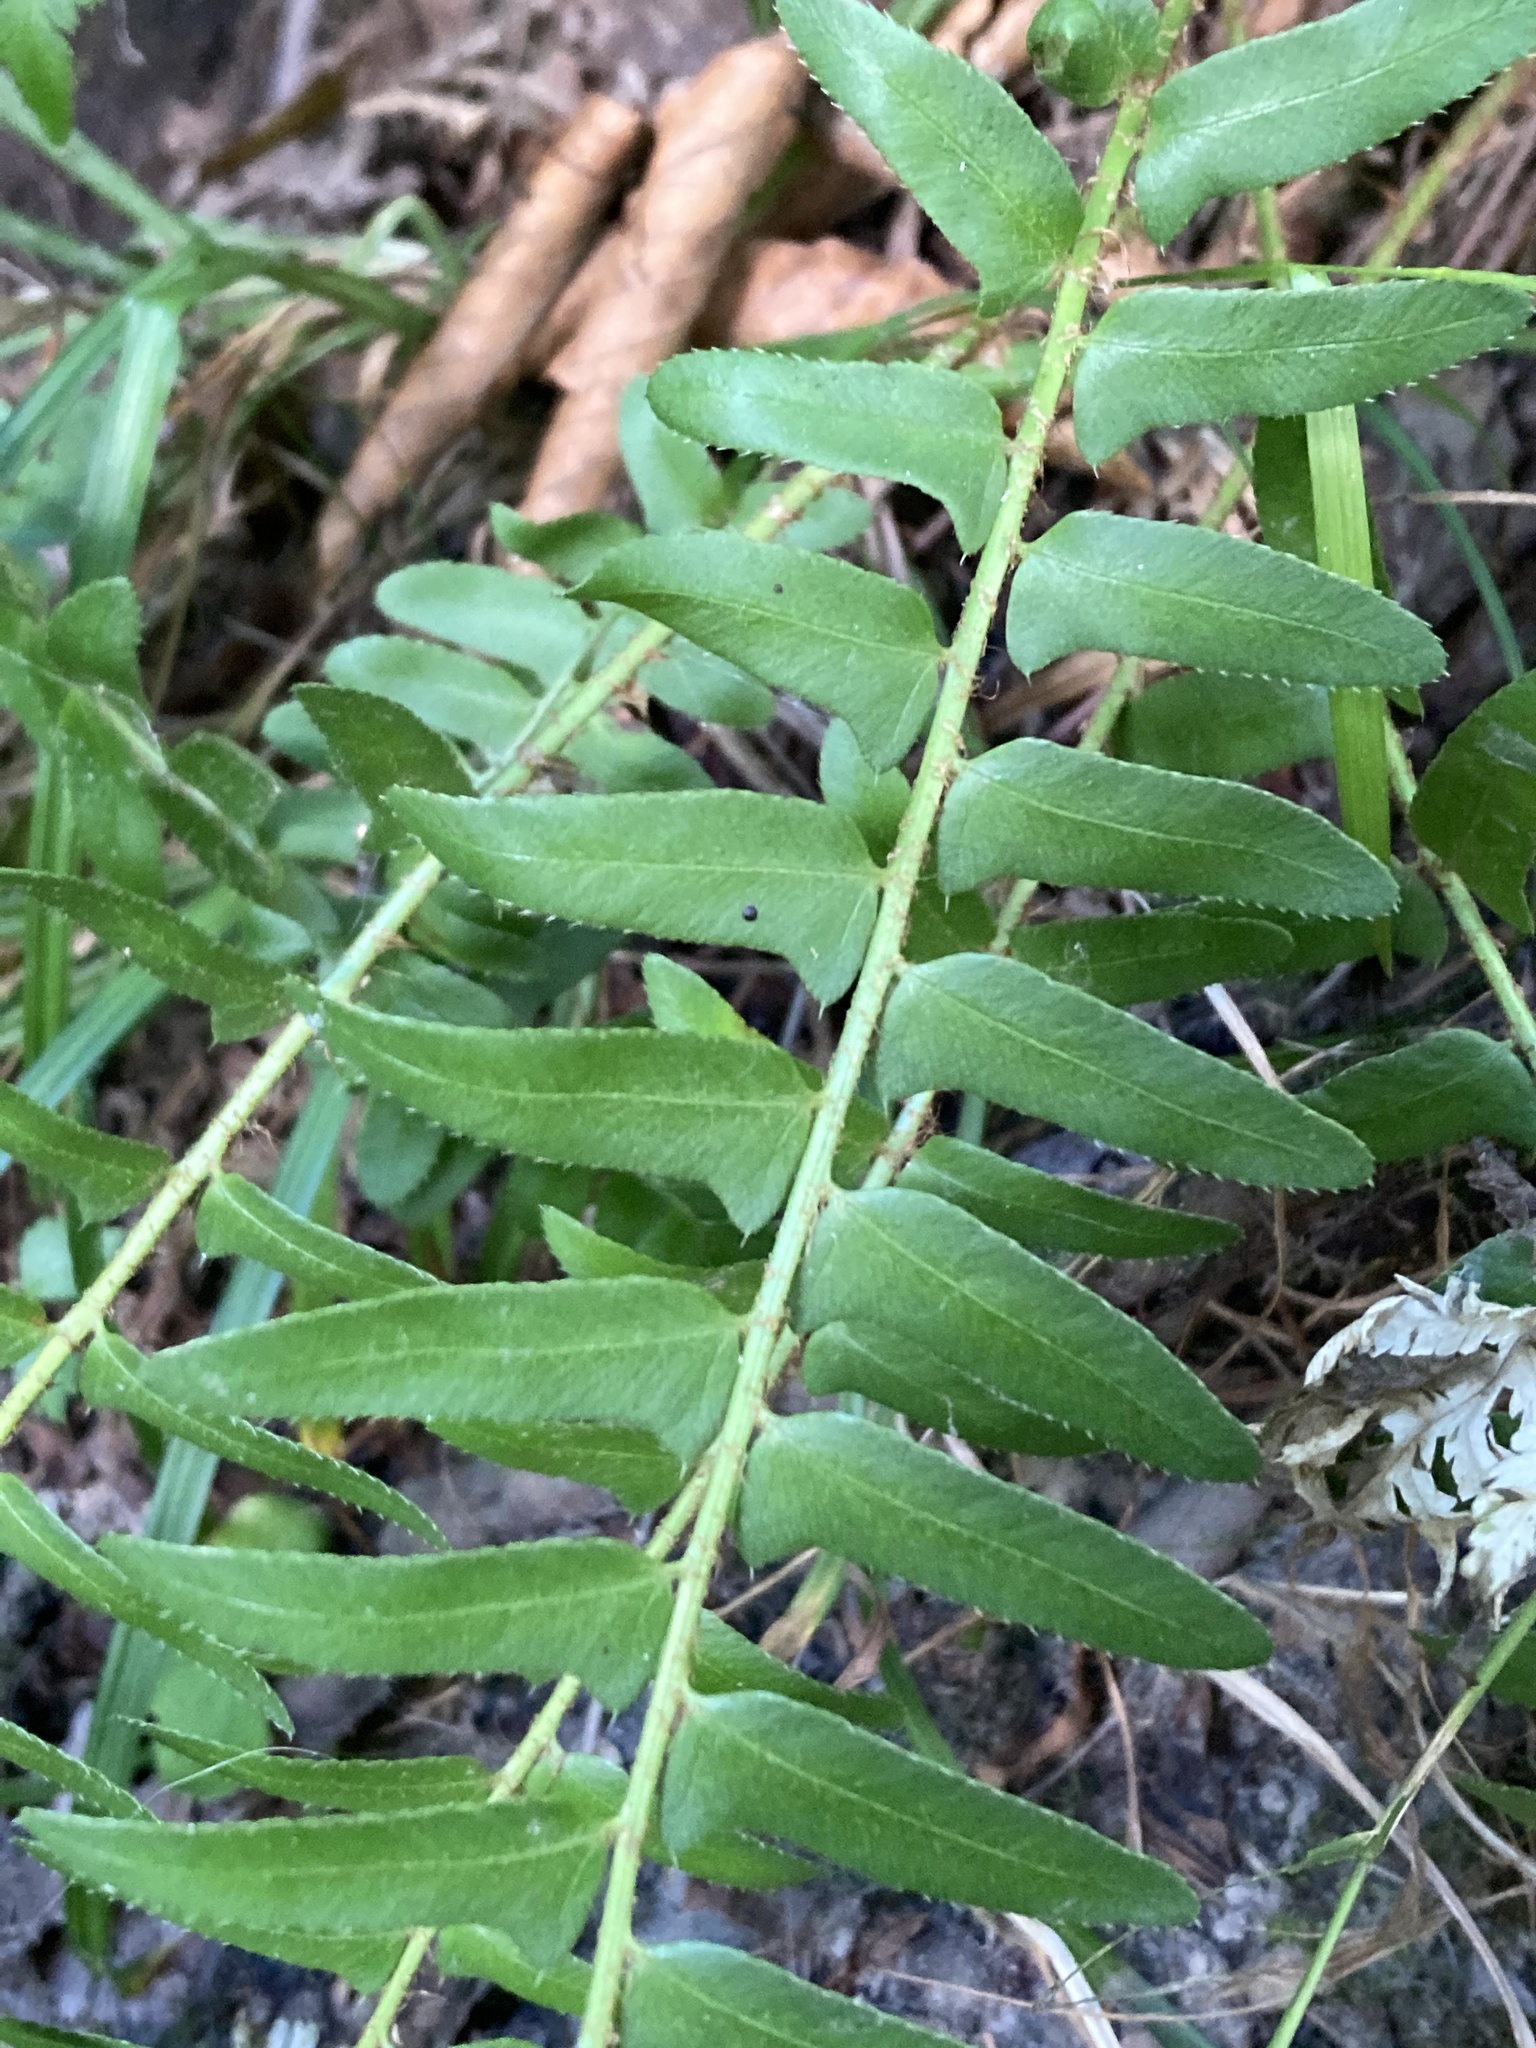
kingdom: Plantae
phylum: Tracheophyta
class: Polypodiopsida
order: Polypodiales
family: Dryopteridaceae
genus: Polystichum
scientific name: Polystichum acrostichoides
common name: Christmas fern
